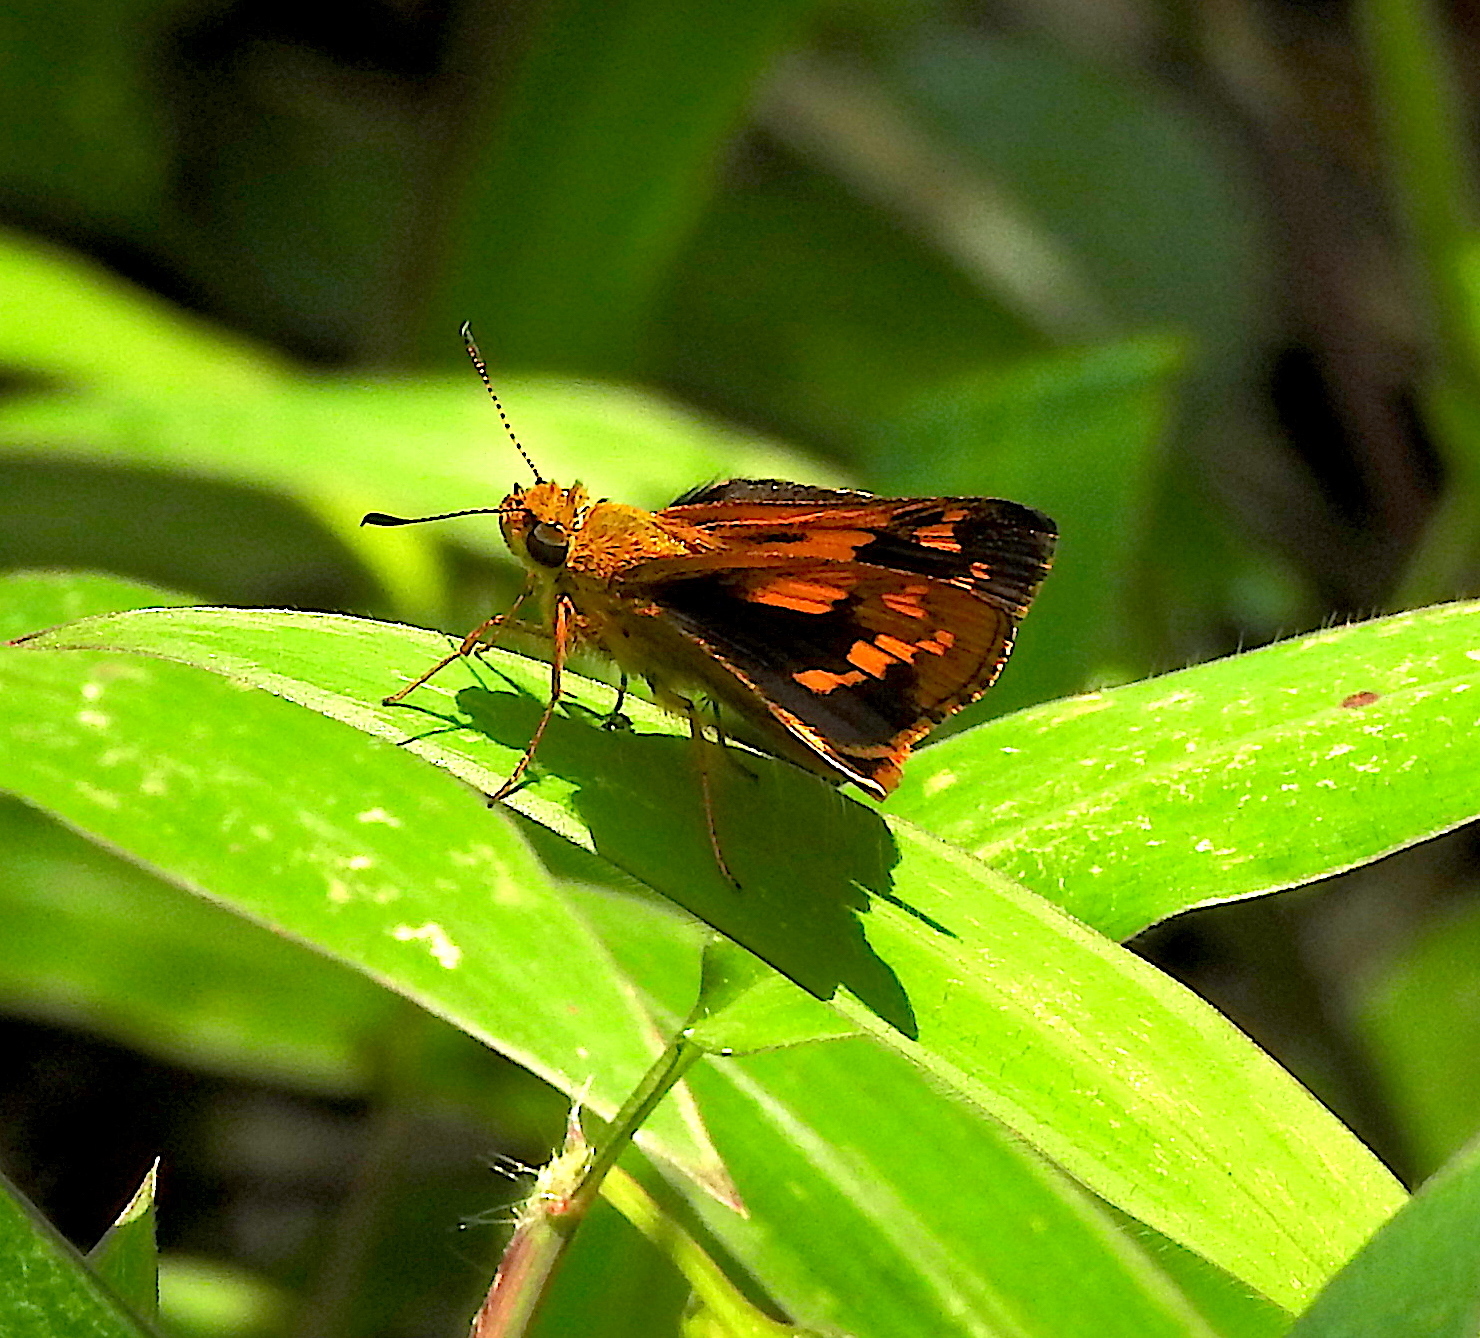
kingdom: Animalia
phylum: Arthropoda
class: Insecta
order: Lepidoptera
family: Hesperiidae
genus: Potanthus
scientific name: Potanthus palnia
